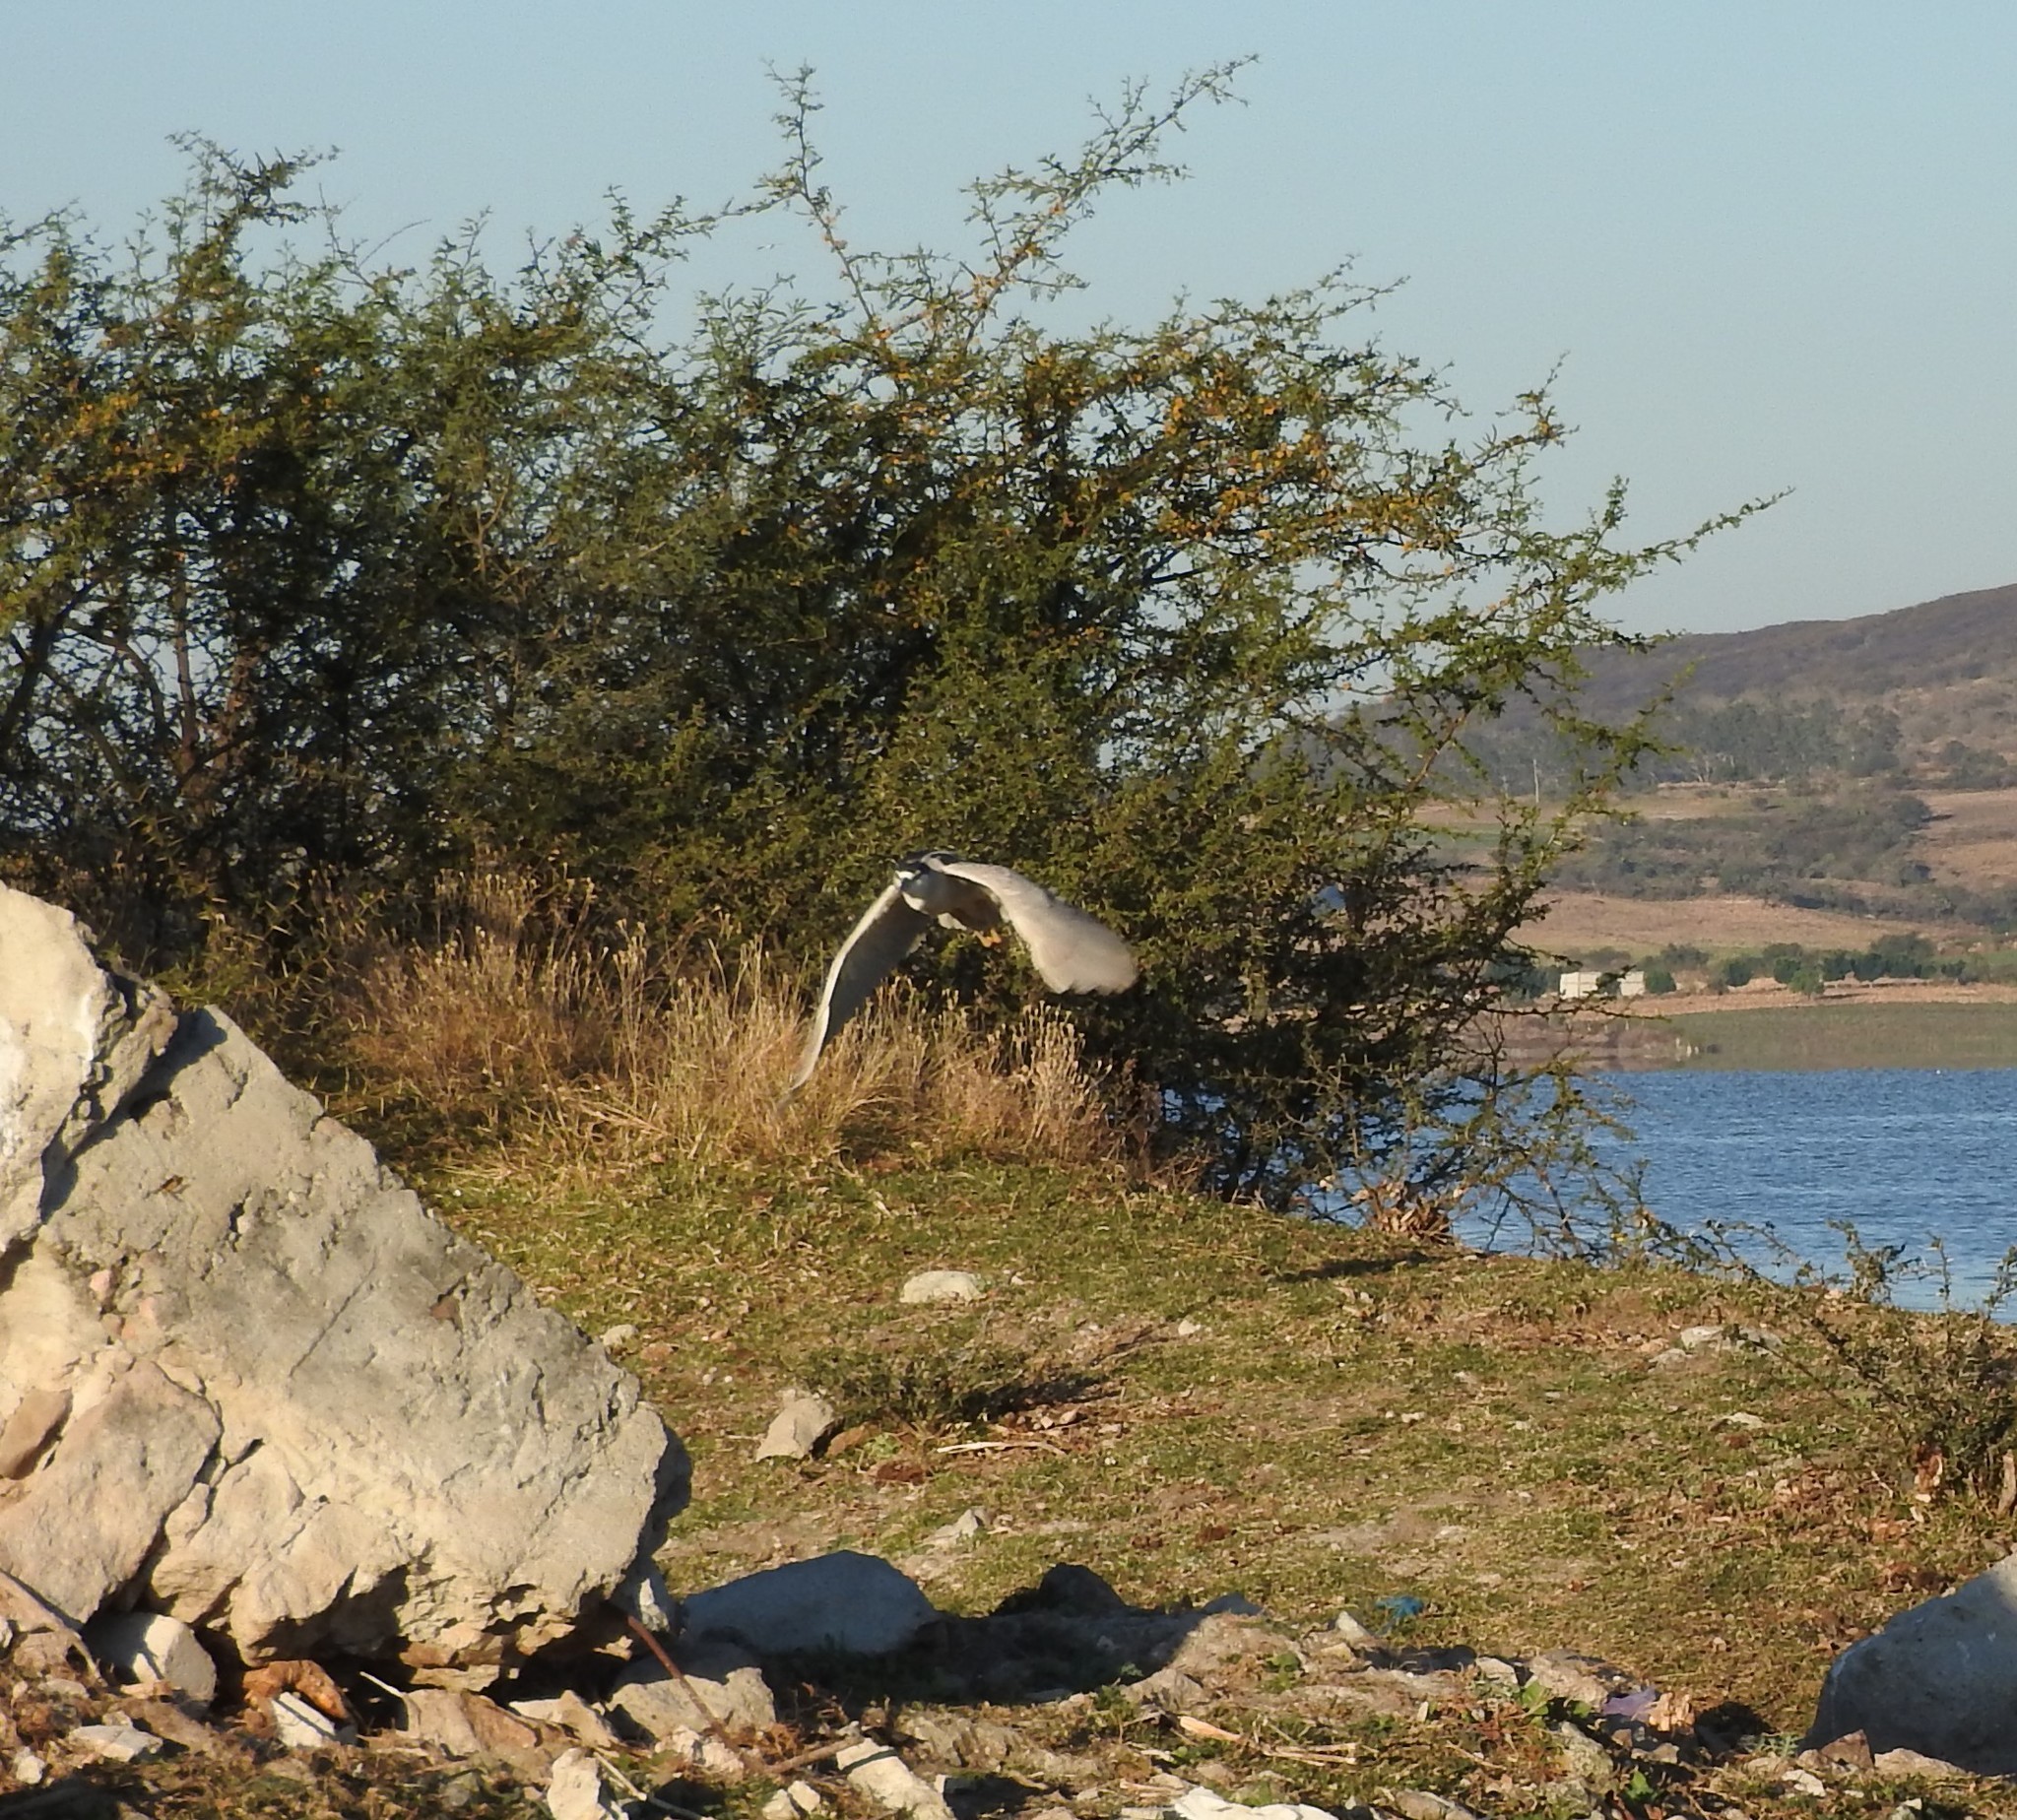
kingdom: Animalia
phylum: Chordata
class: Aves
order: Pelecaniformes
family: Ardeidae
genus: Nycticorax
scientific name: Nycticorax nycticorax
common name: Black-crowned night heron
